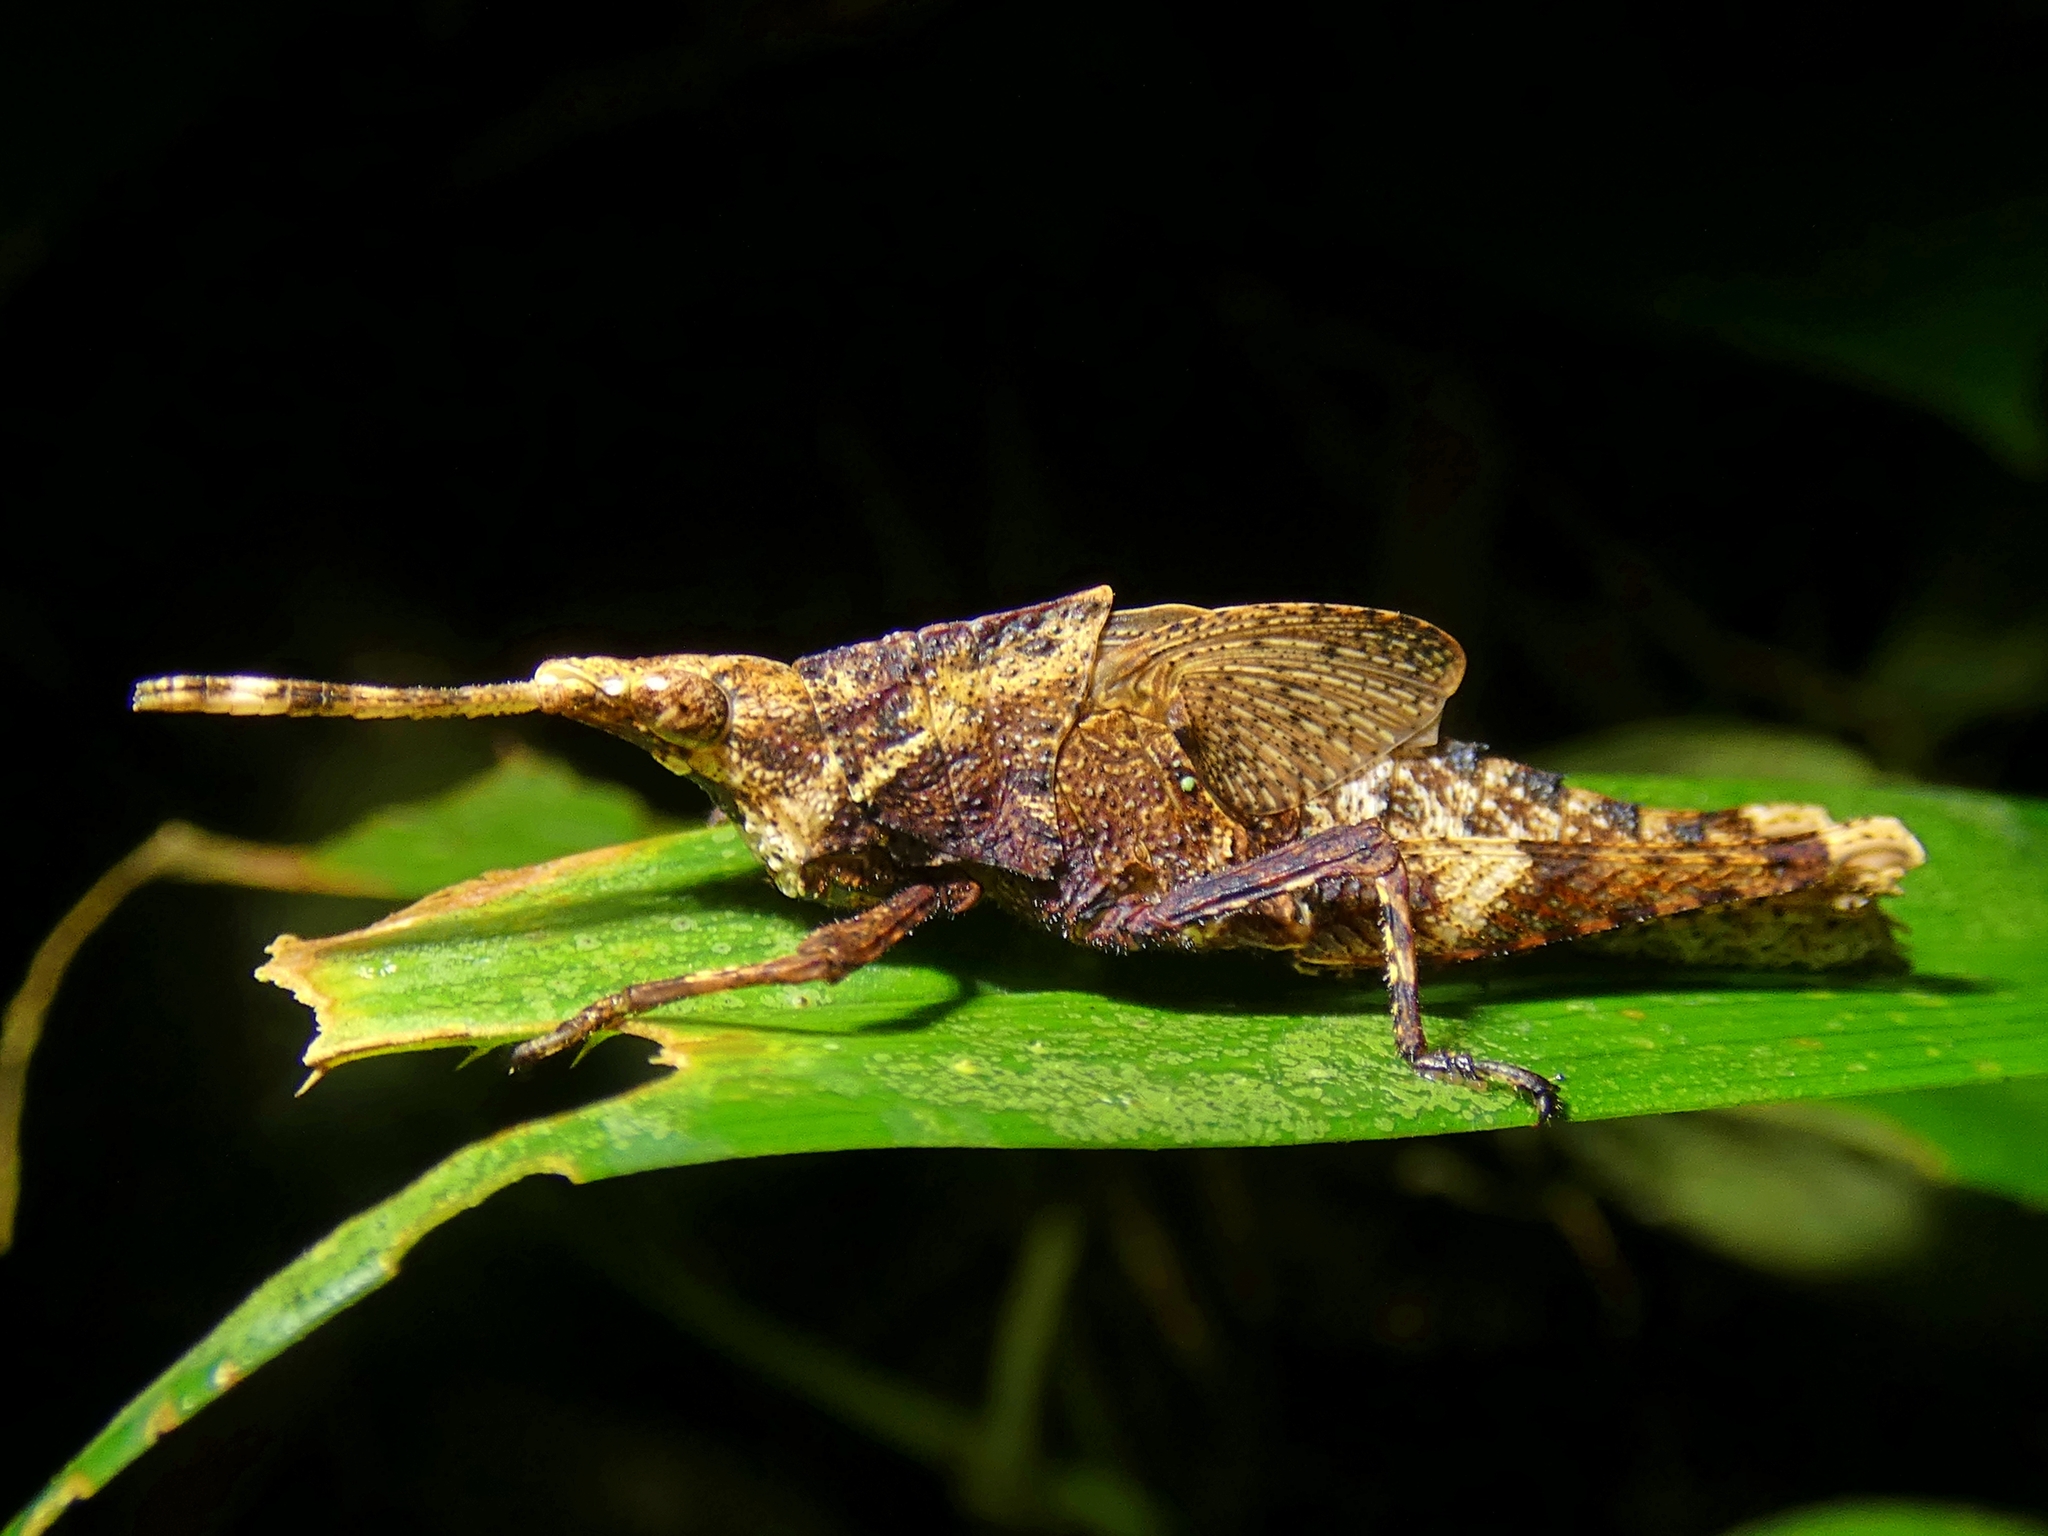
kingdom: Animalia
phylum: Arthropoda
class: Insecta
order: Orthoptera
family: Pyrgomorphidae
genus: Desmoptera
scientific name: Desmoptera truncatipennis
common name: Large forest pyrgomorph
